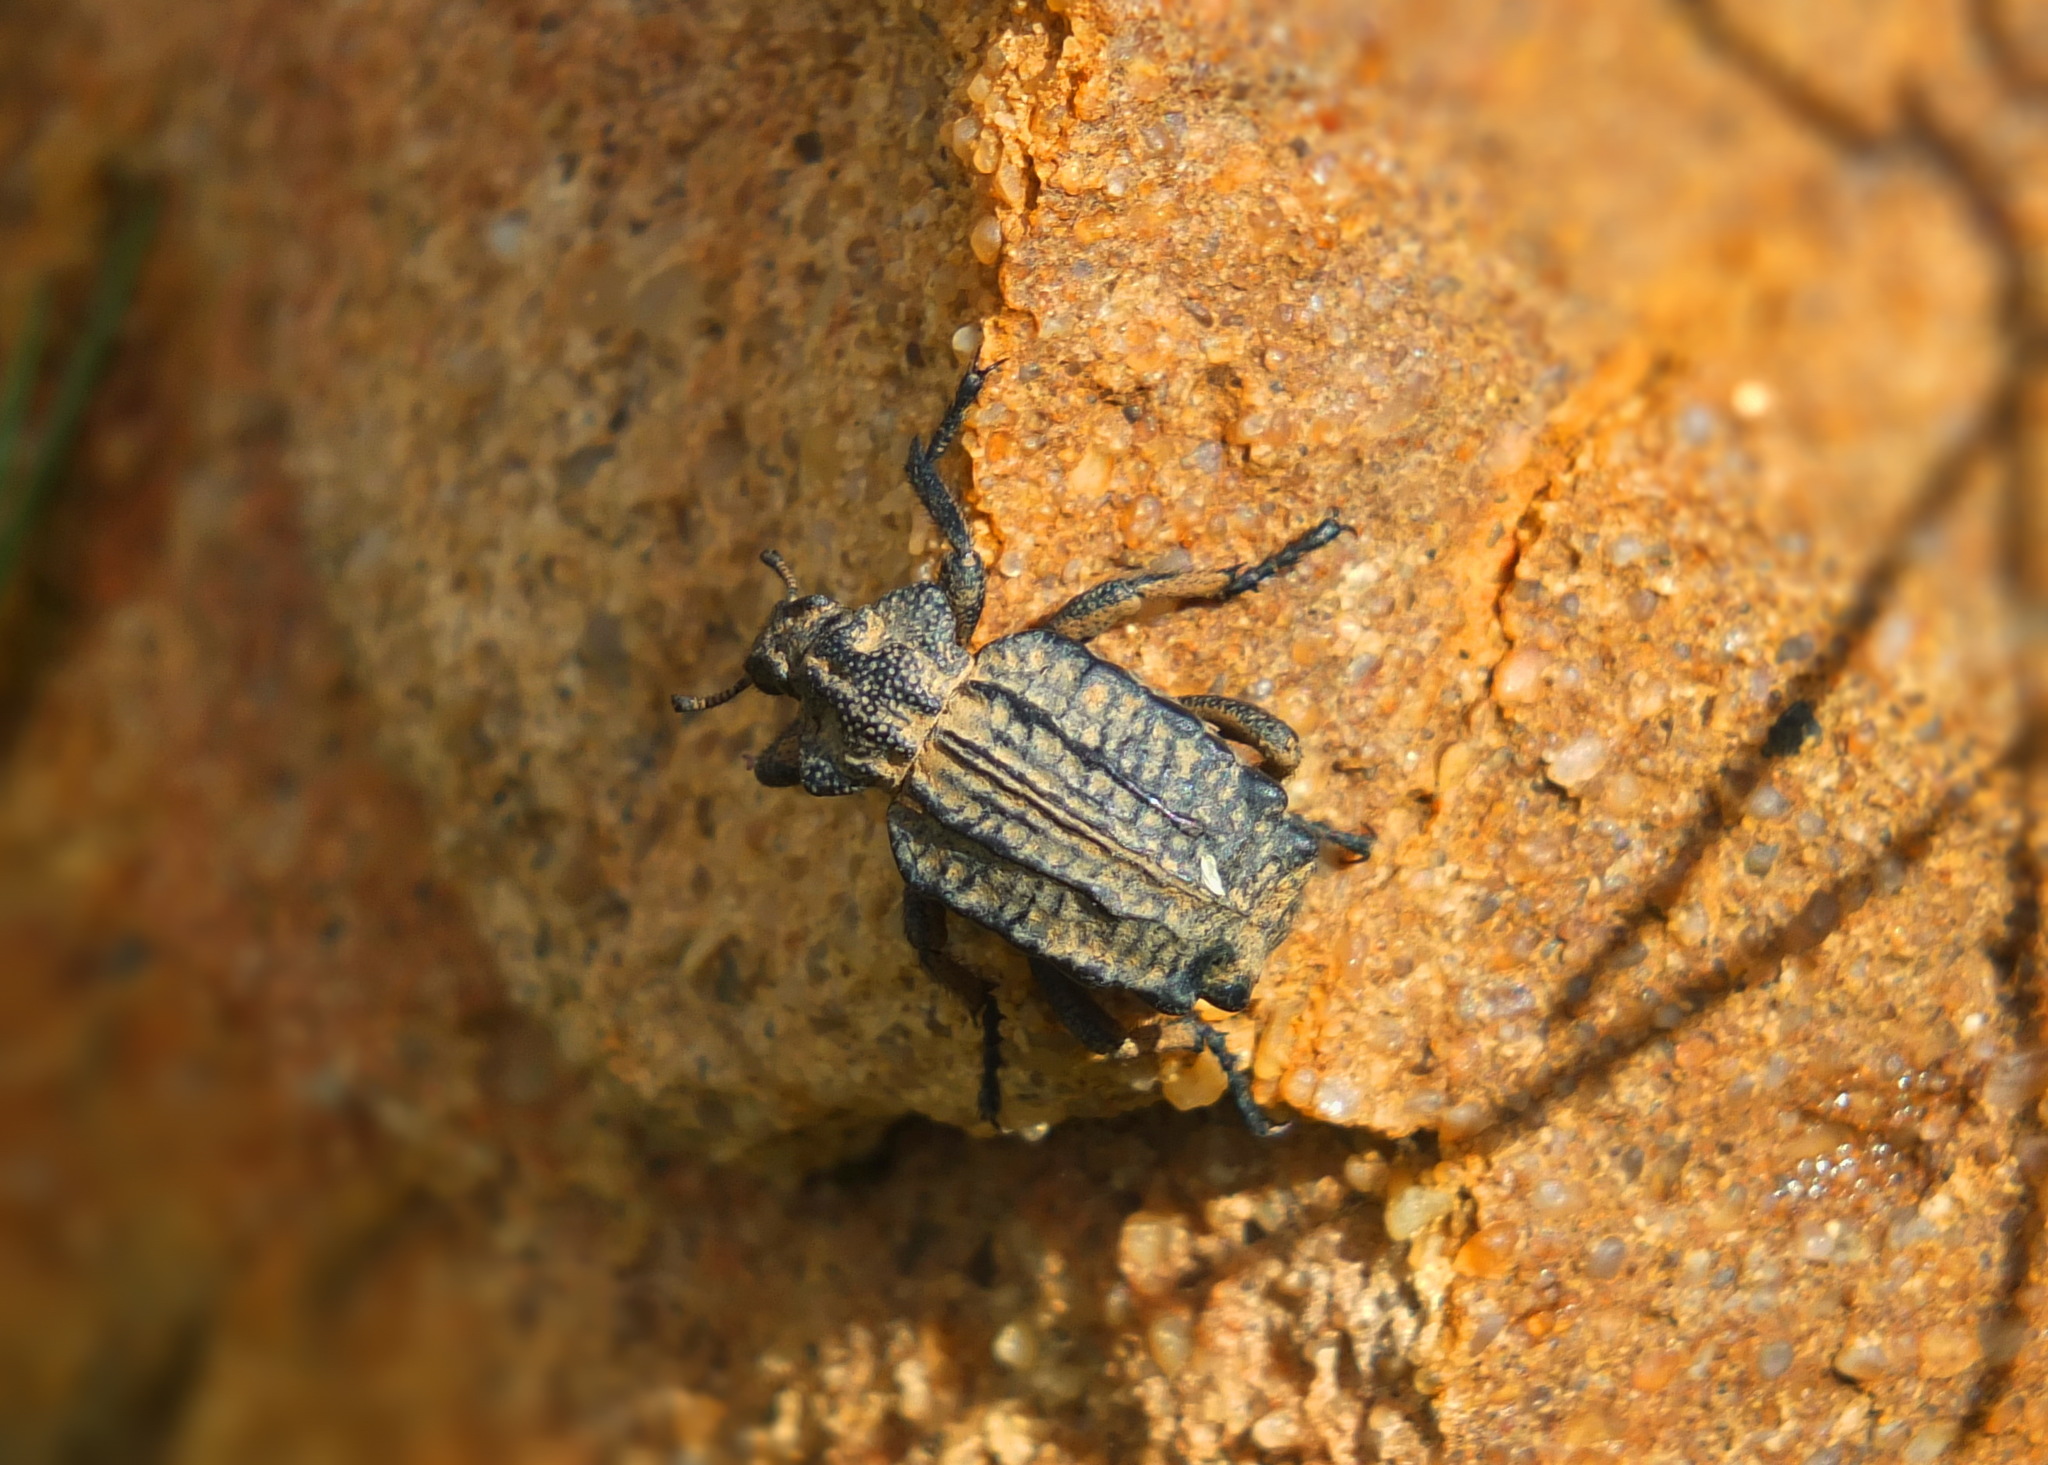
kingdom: Animalia
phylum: Arthropoda
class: Insecta
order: Coleoptera
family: Brachyceridae
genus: Brachycerus
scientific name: Brachycerus undatus
